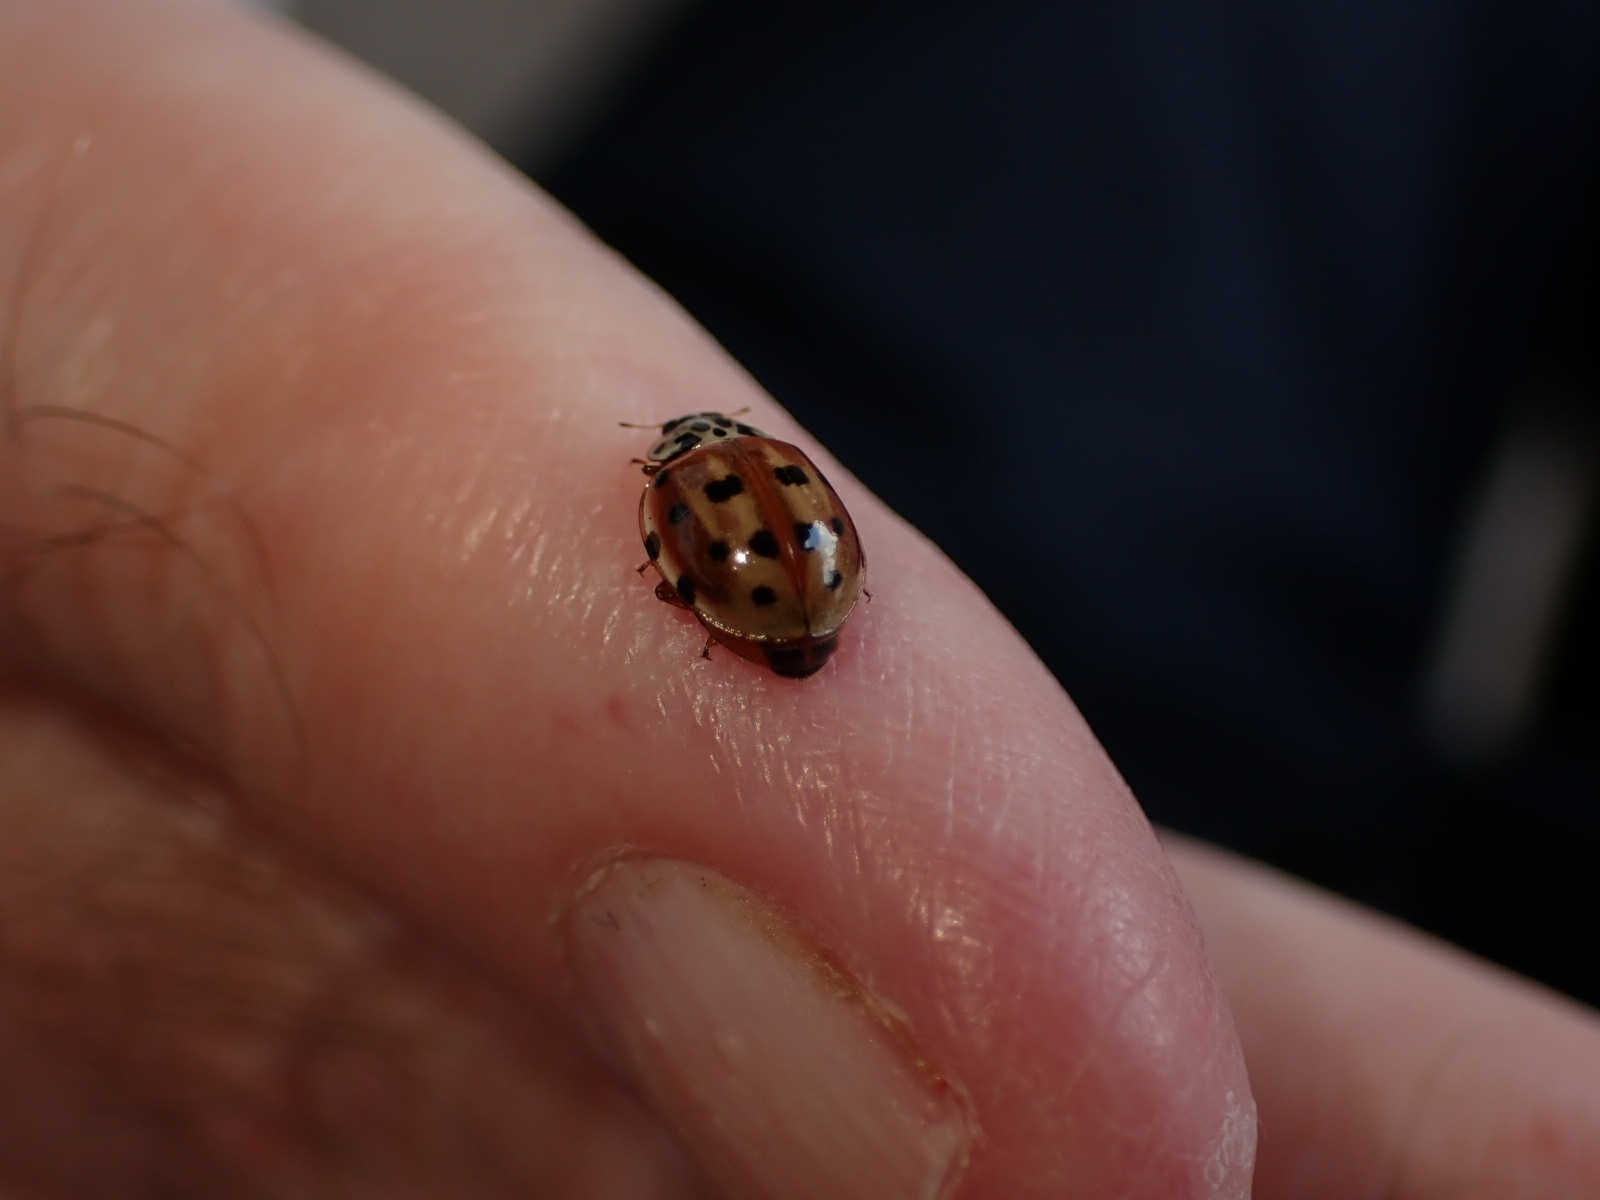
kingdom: Animalia
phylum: Arthropoda
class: Insecta
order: Coleoptera
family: Coccinellidae
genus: Harmonia
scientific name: Harmonia quadripunctata
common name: Cream-streaked ladybird
